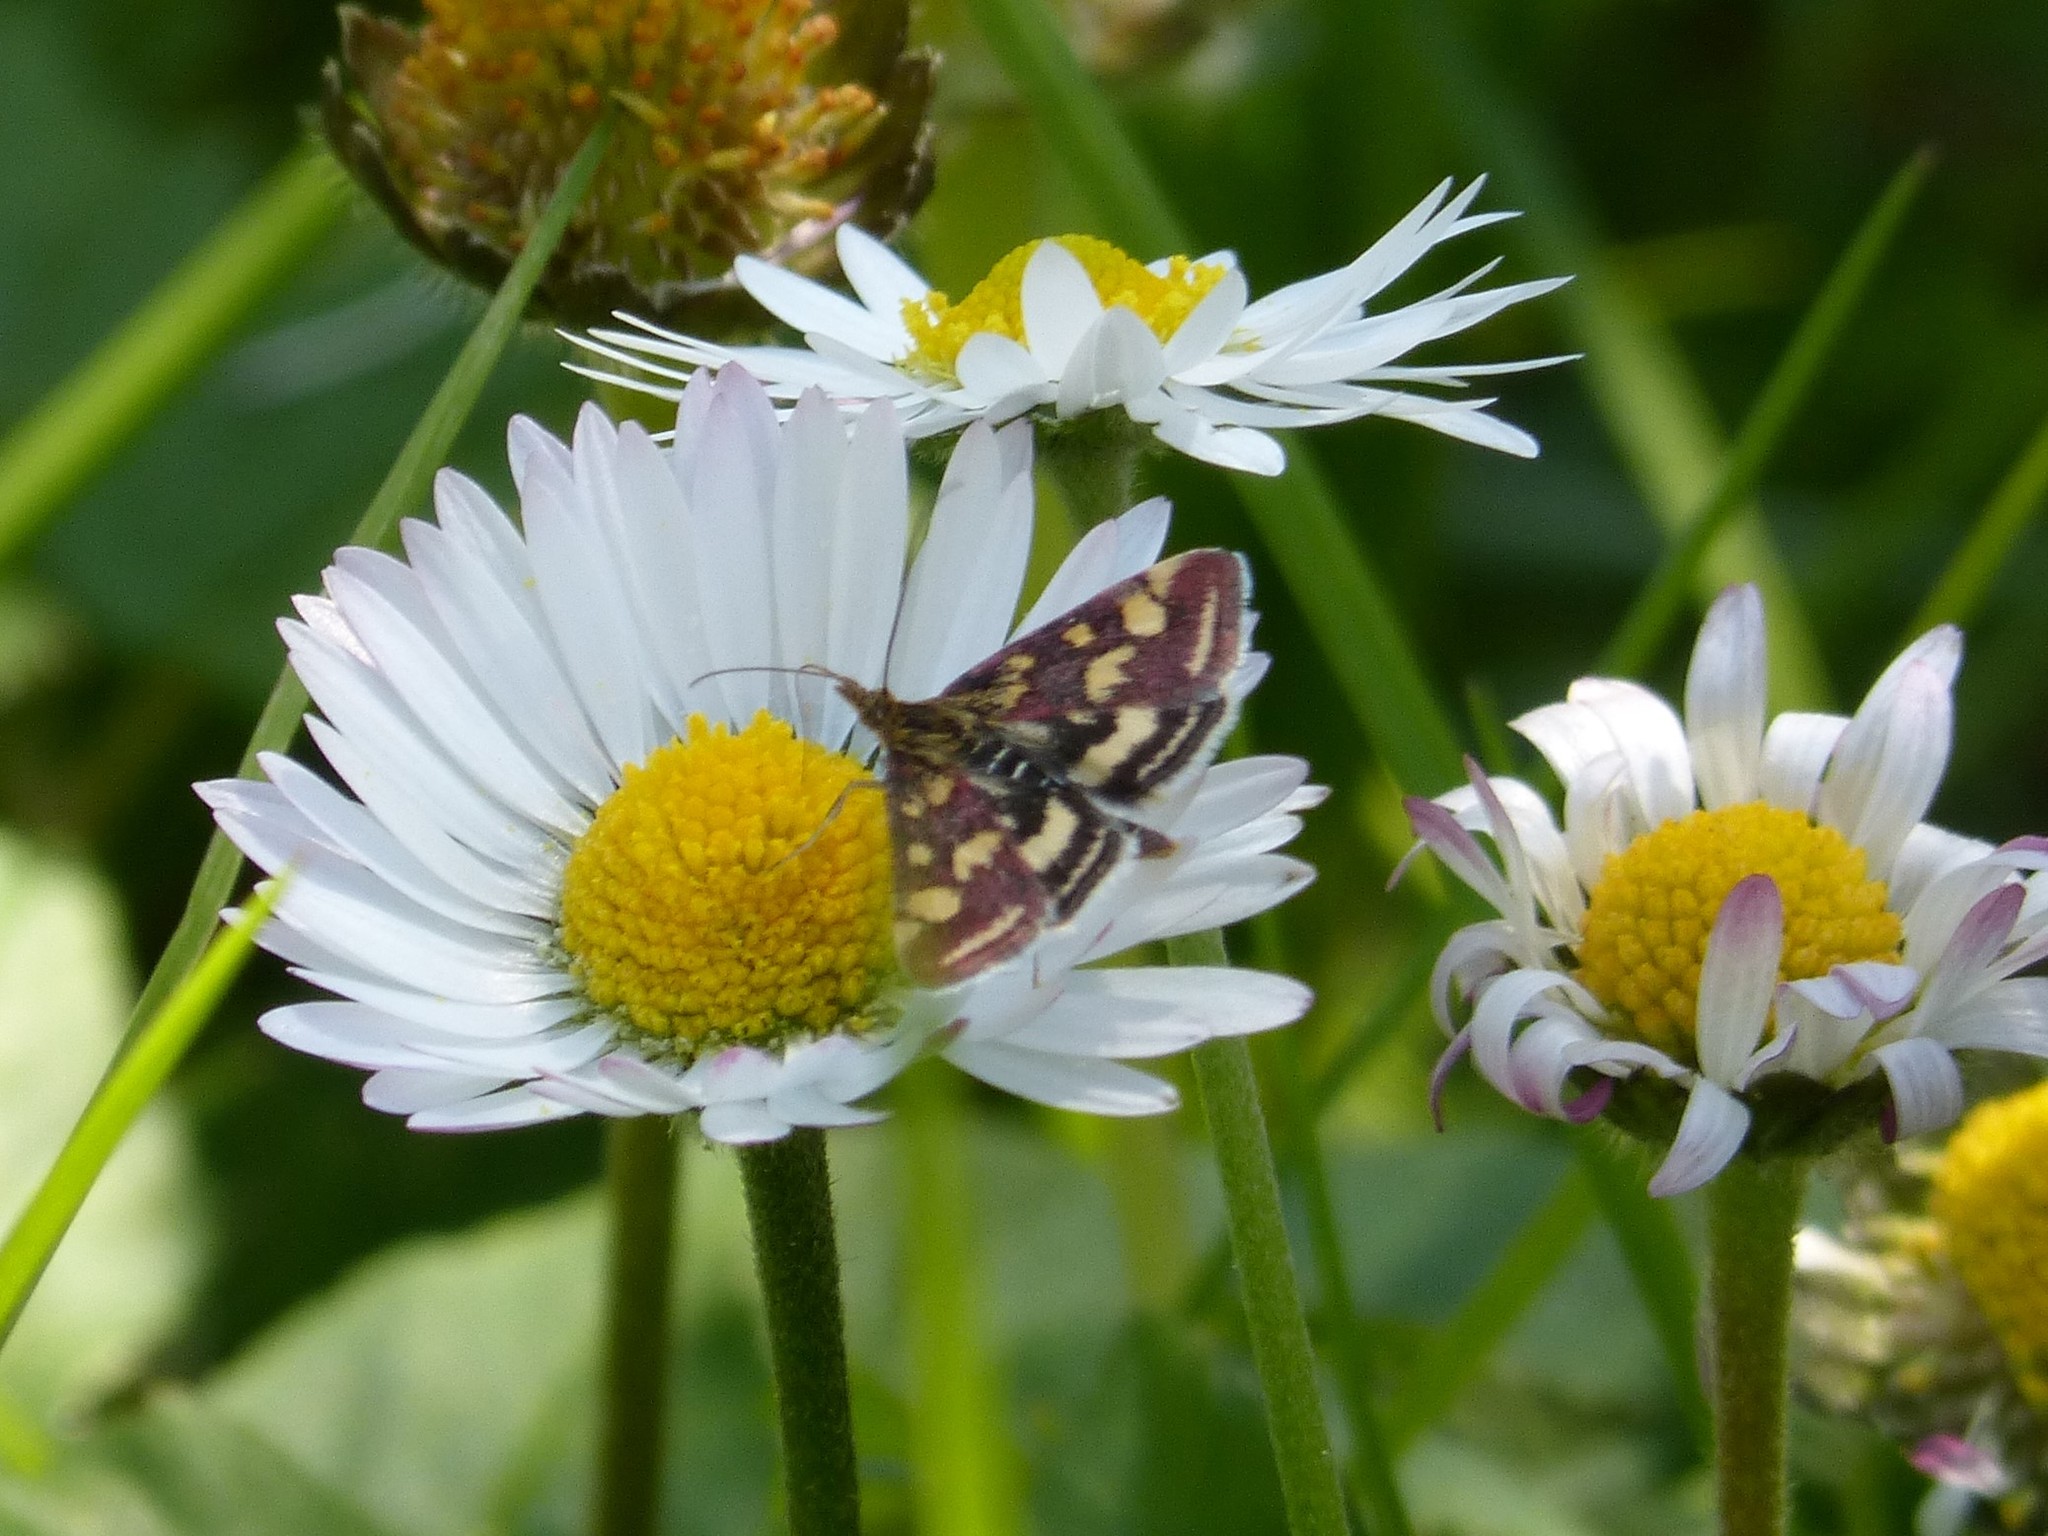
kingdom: Animalia
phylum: Arthropoda
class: Insecta
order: Lepidoptera
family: Crambidae
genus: Pyrausta
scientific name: Pyrausta purpuralis
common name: Common purple & gold
